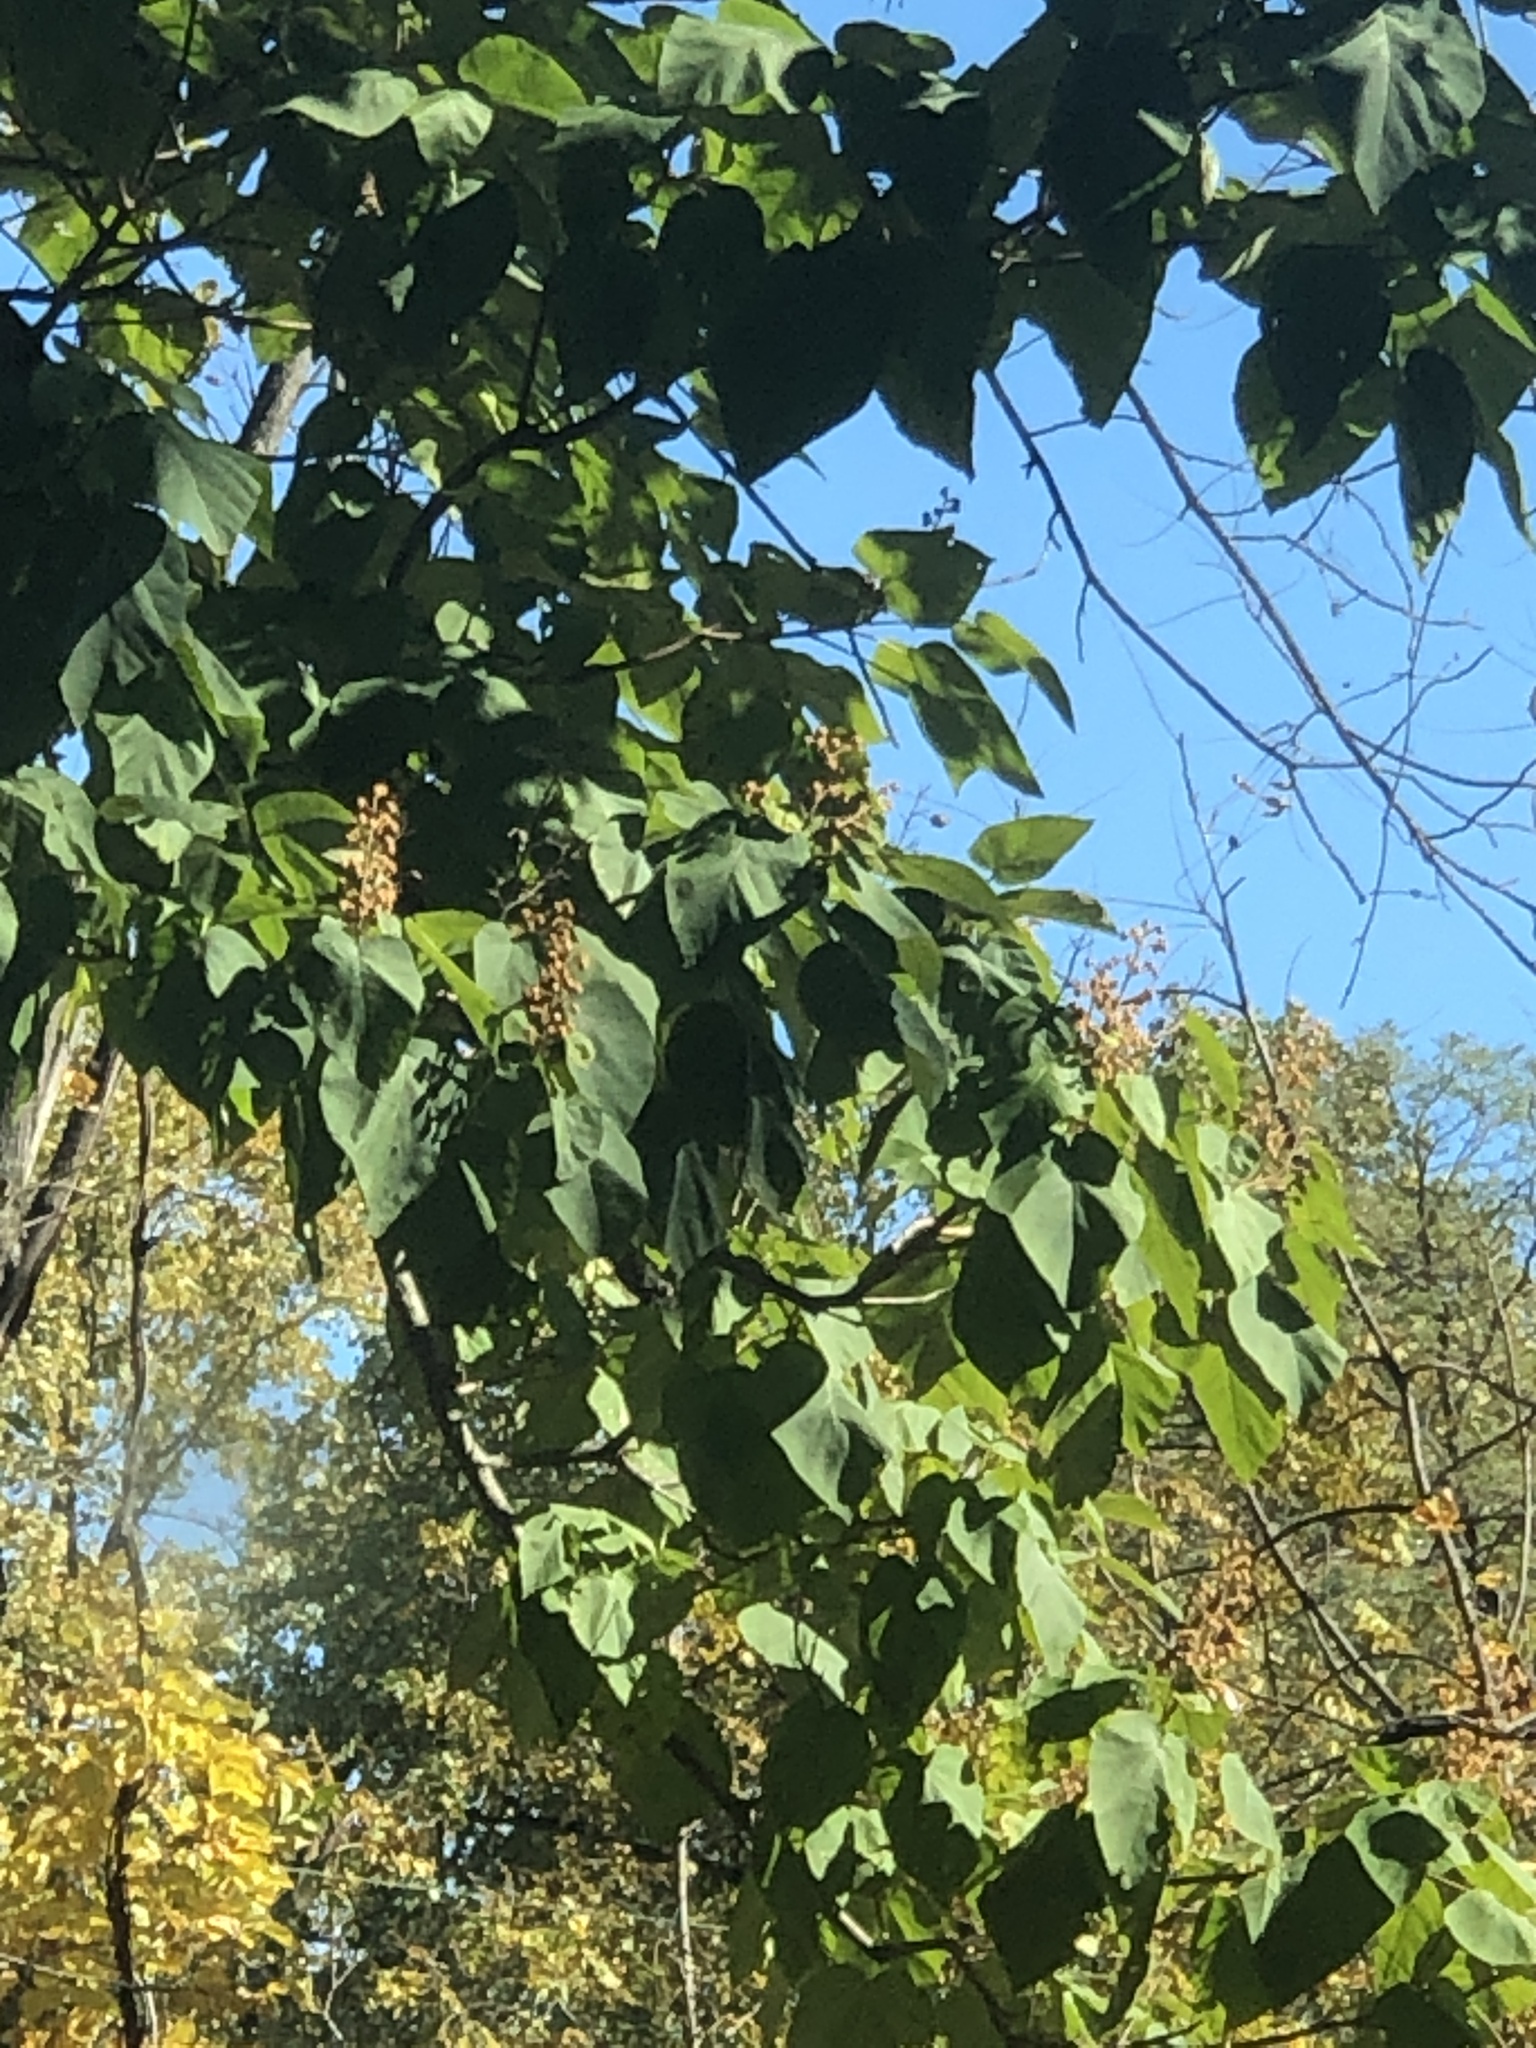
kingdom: Plantae
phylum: Tracheophyta
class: Magnoliopsida
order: Lamiales
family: Paulowniaceae
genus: Paulownia
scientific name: Paulownia tomentosa
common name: Foxglove-tree
